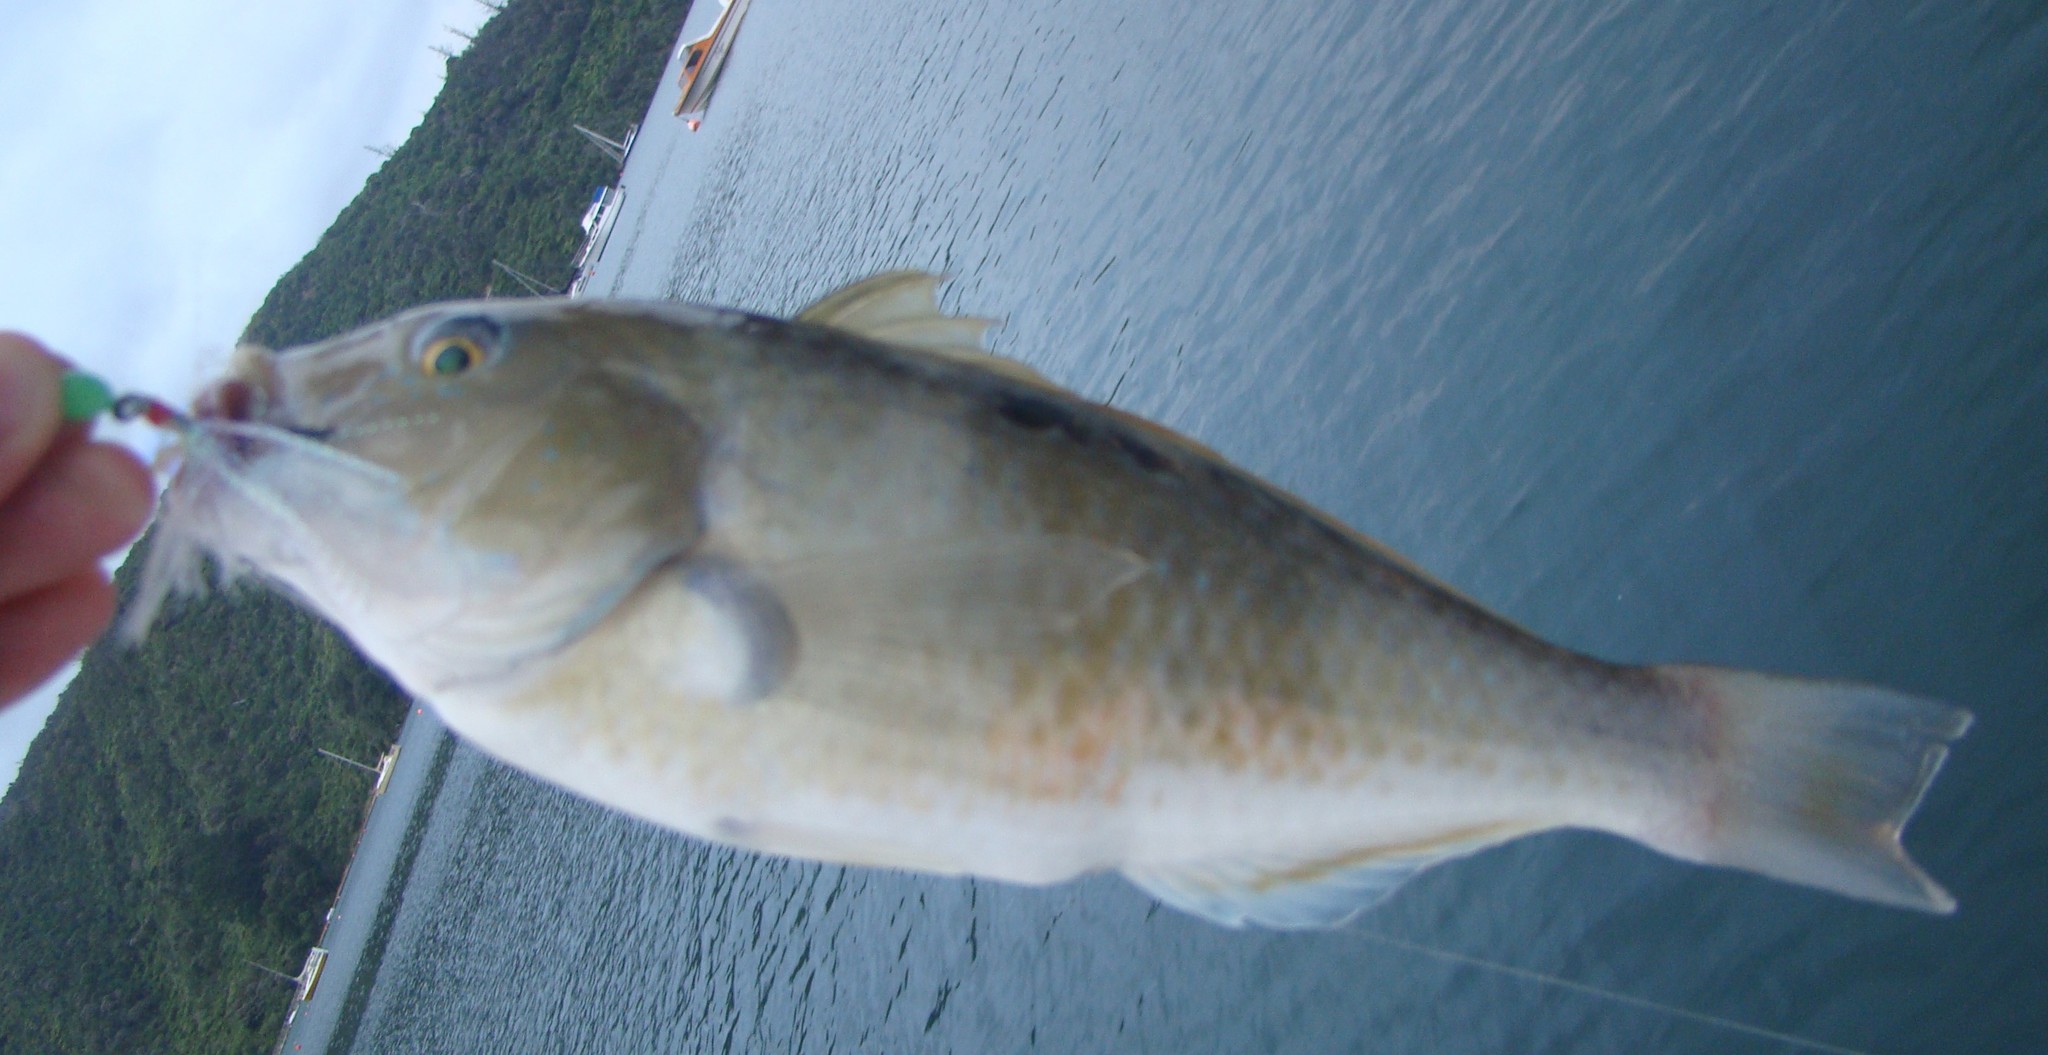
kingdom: Animalia
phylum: Chordata
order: Perciformes
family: Labridae
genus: Notolabrus
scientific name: Notolabrus celidotus
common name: Spotty
